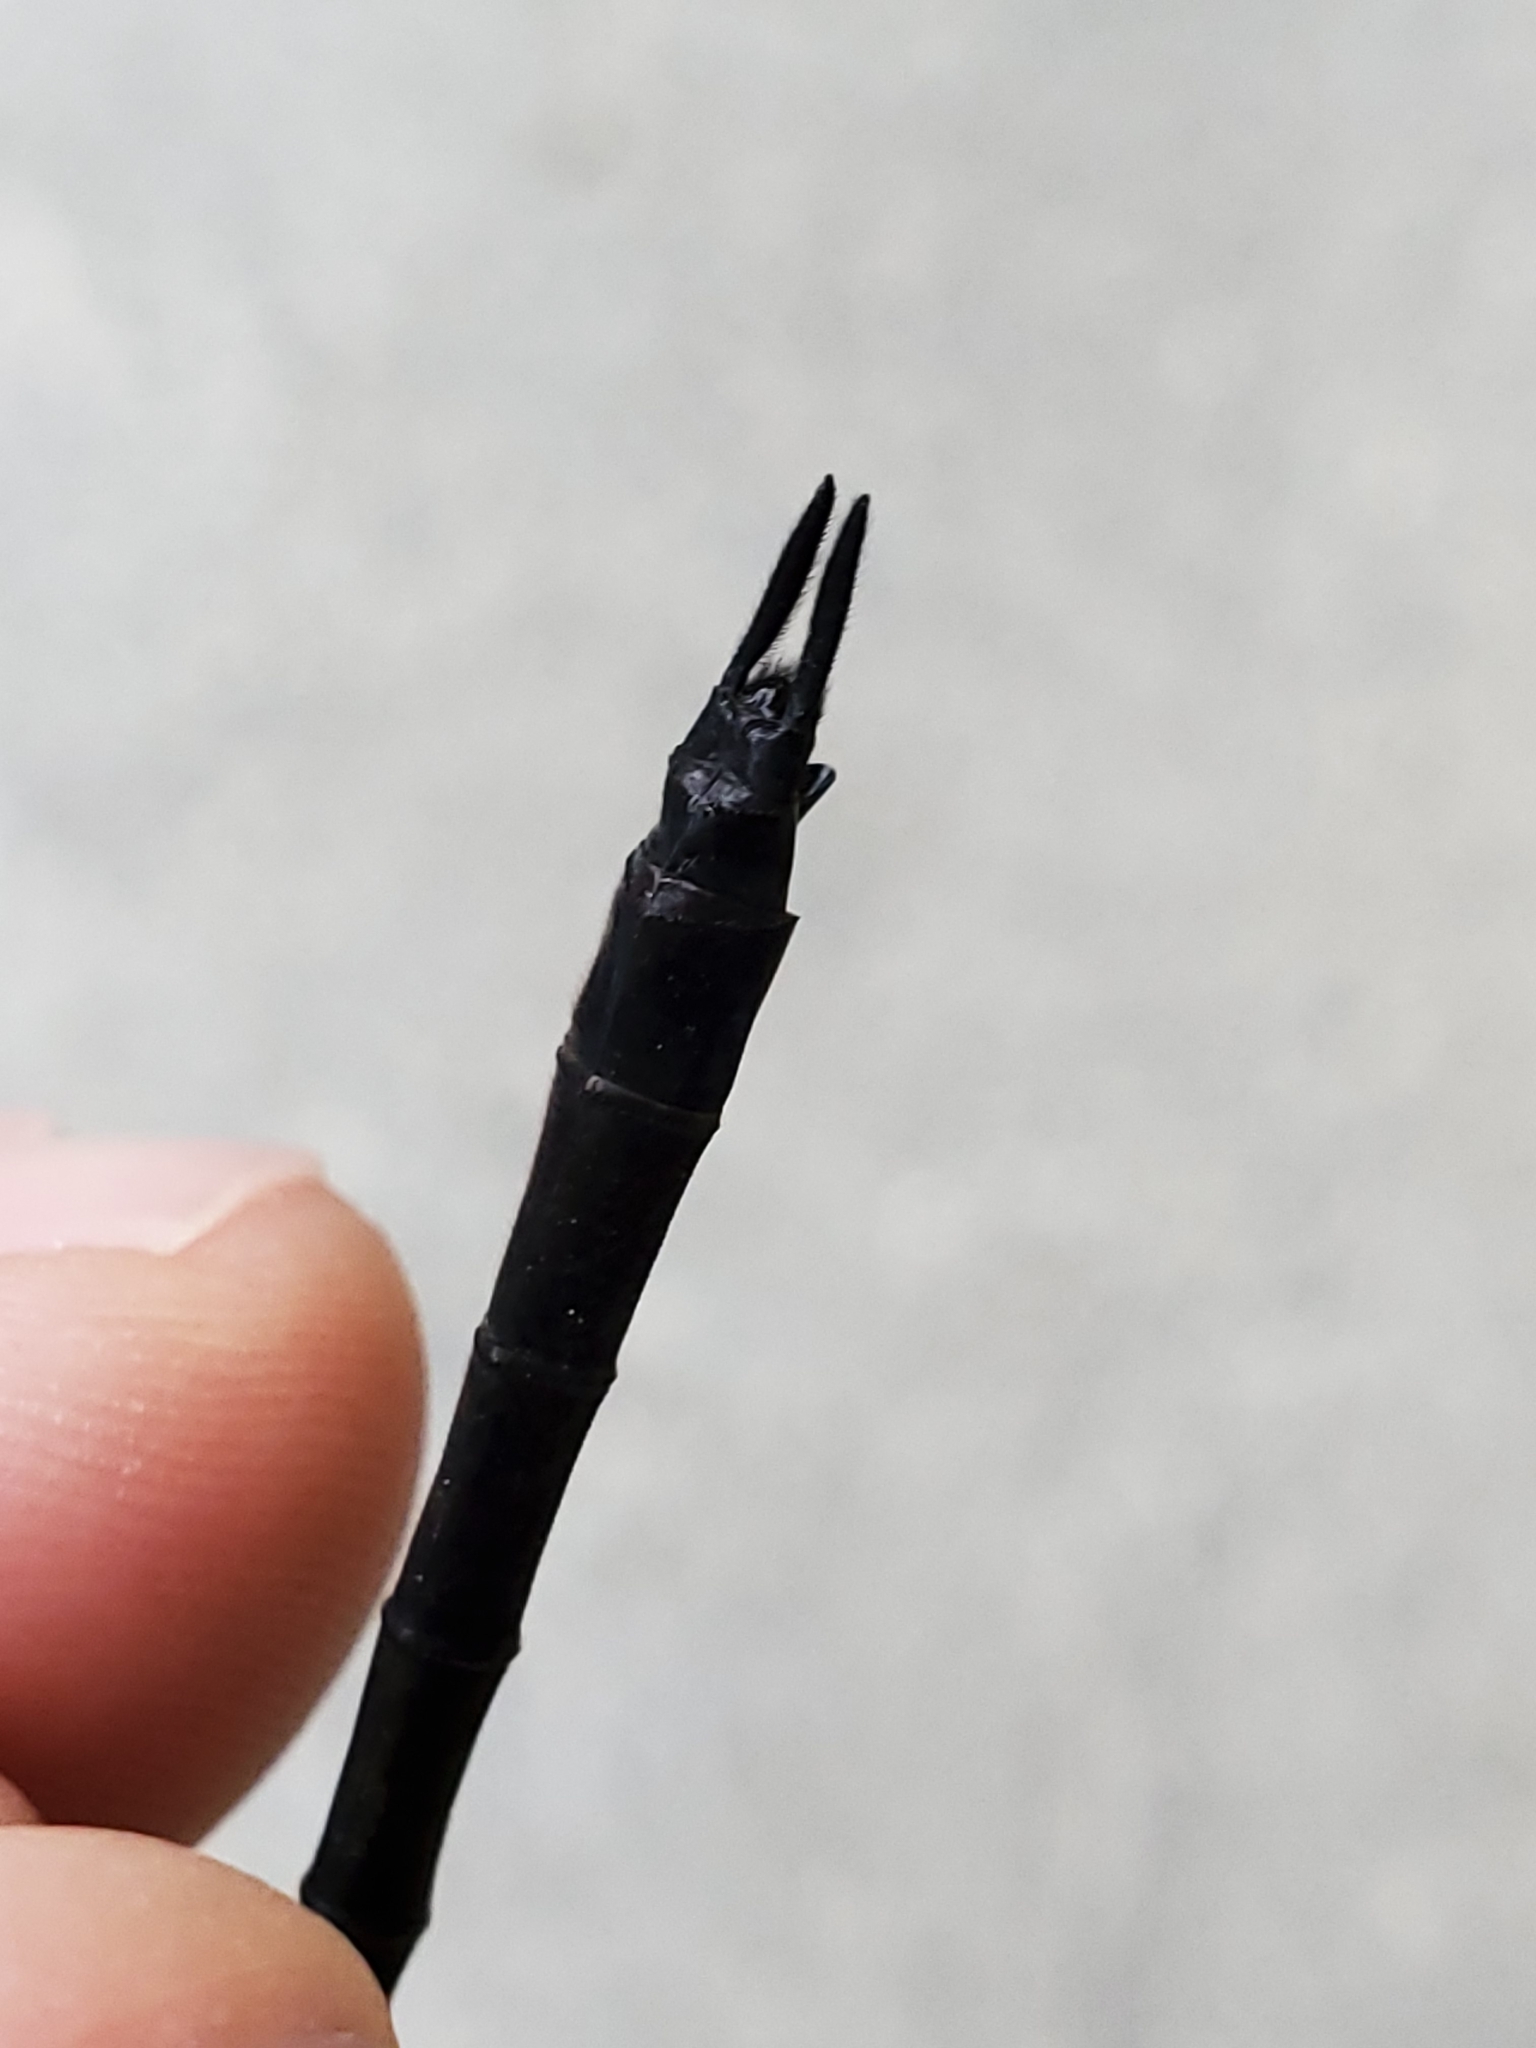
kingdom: Animalia
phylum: Arthropoda
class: Insecta
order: Odonata
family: Corduliidae
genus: Somatochlora
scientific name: Somatochlora tenebrosa
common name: Clamp-tipped emerald
